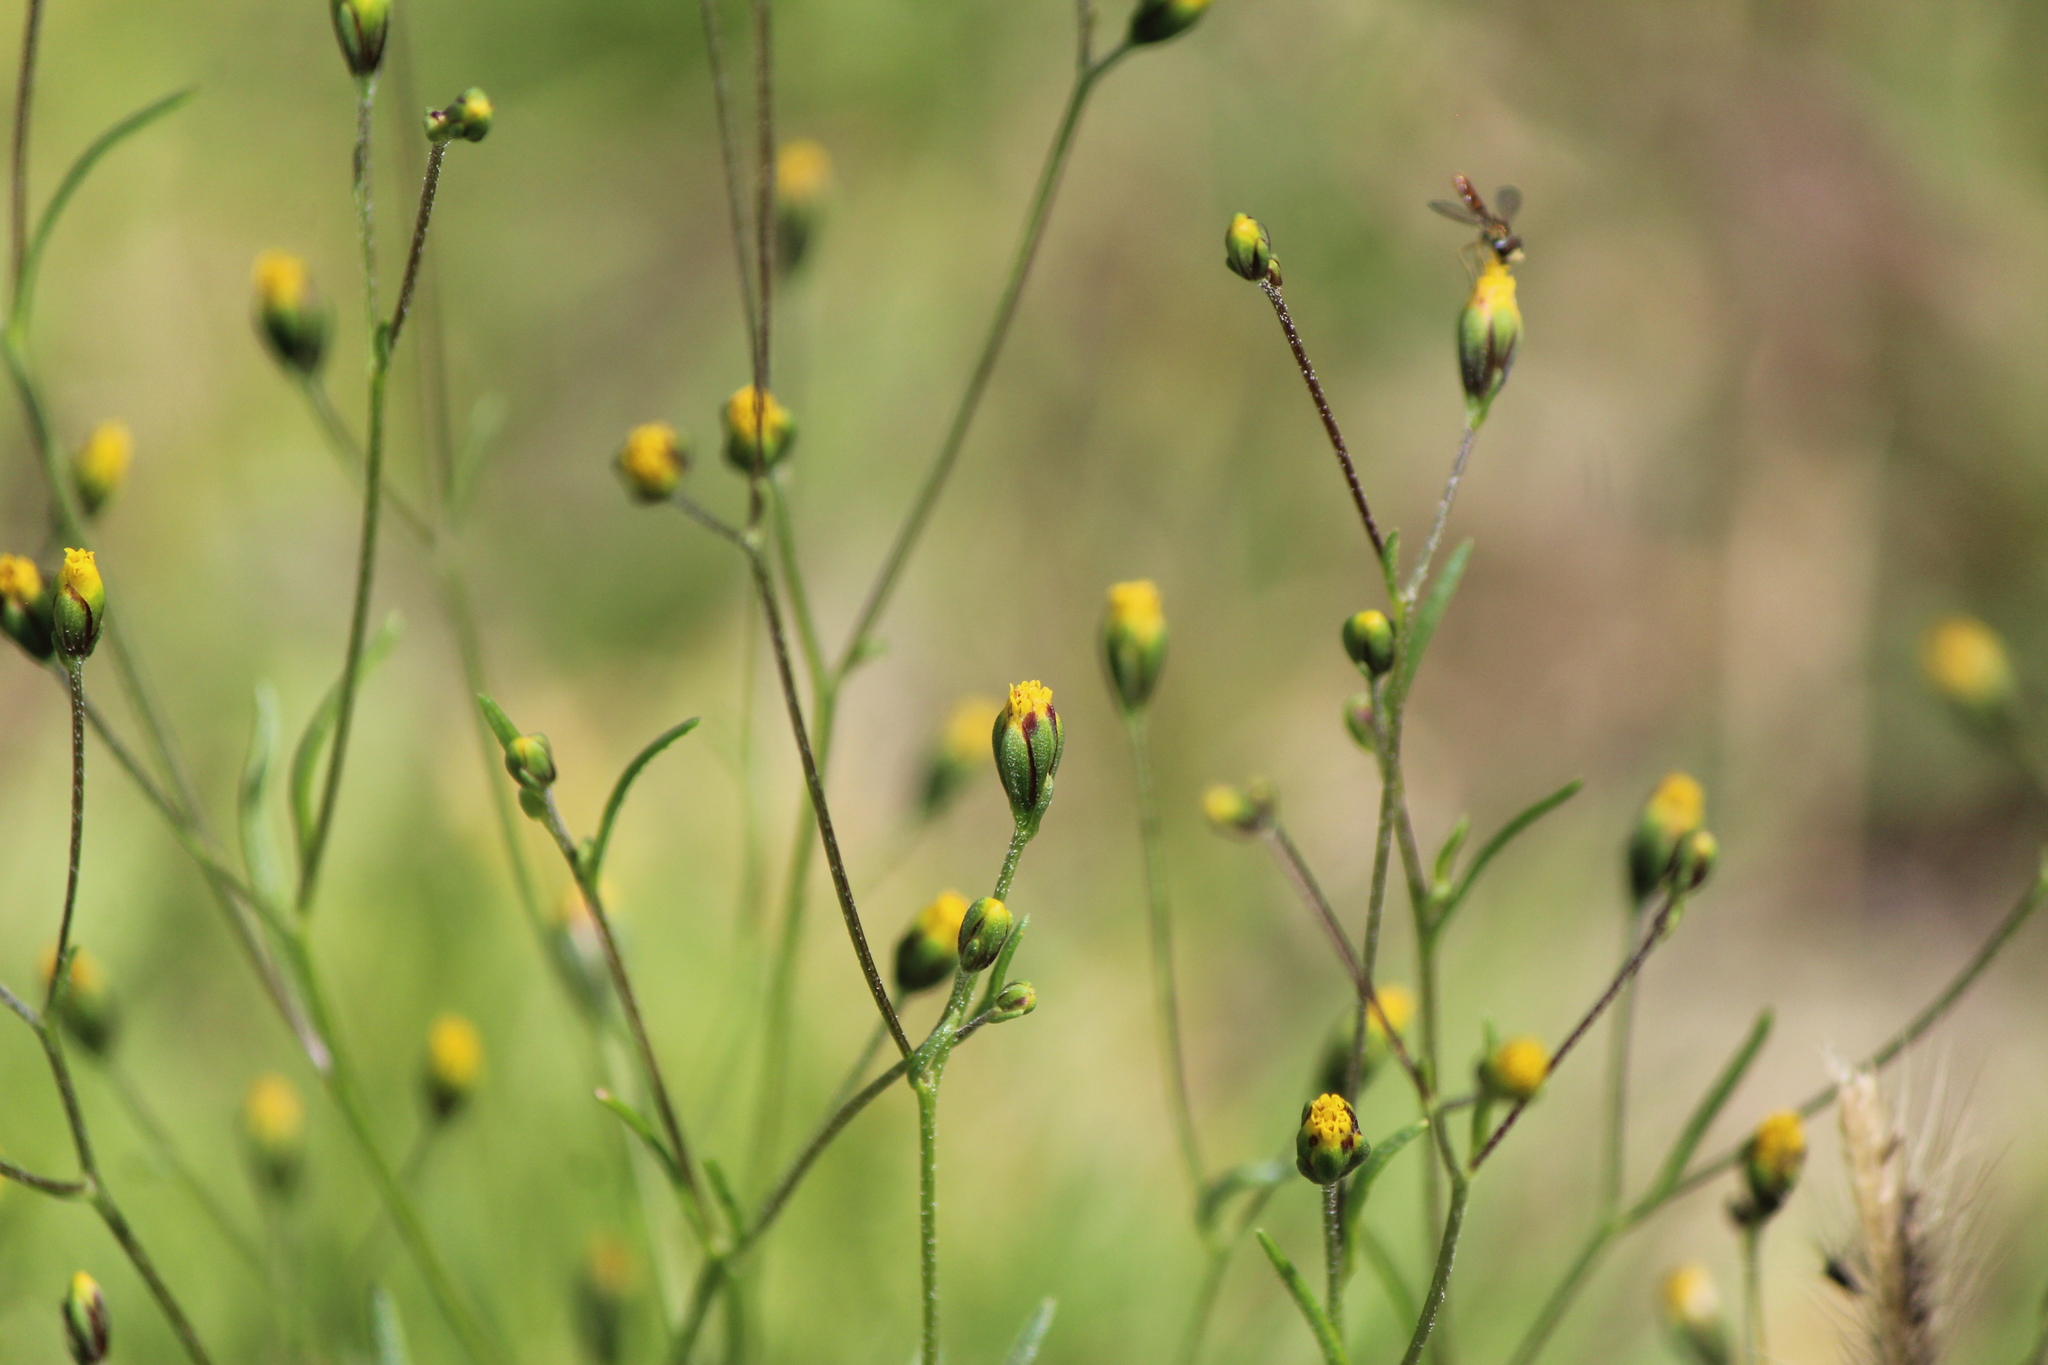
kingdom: Plantae
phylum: Tracheophyta
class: Magnoliopsida
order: Asterales
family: Asteraceae
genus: Schkuhria
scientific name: Schkuhria pinnata
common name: Dwarf marigold
